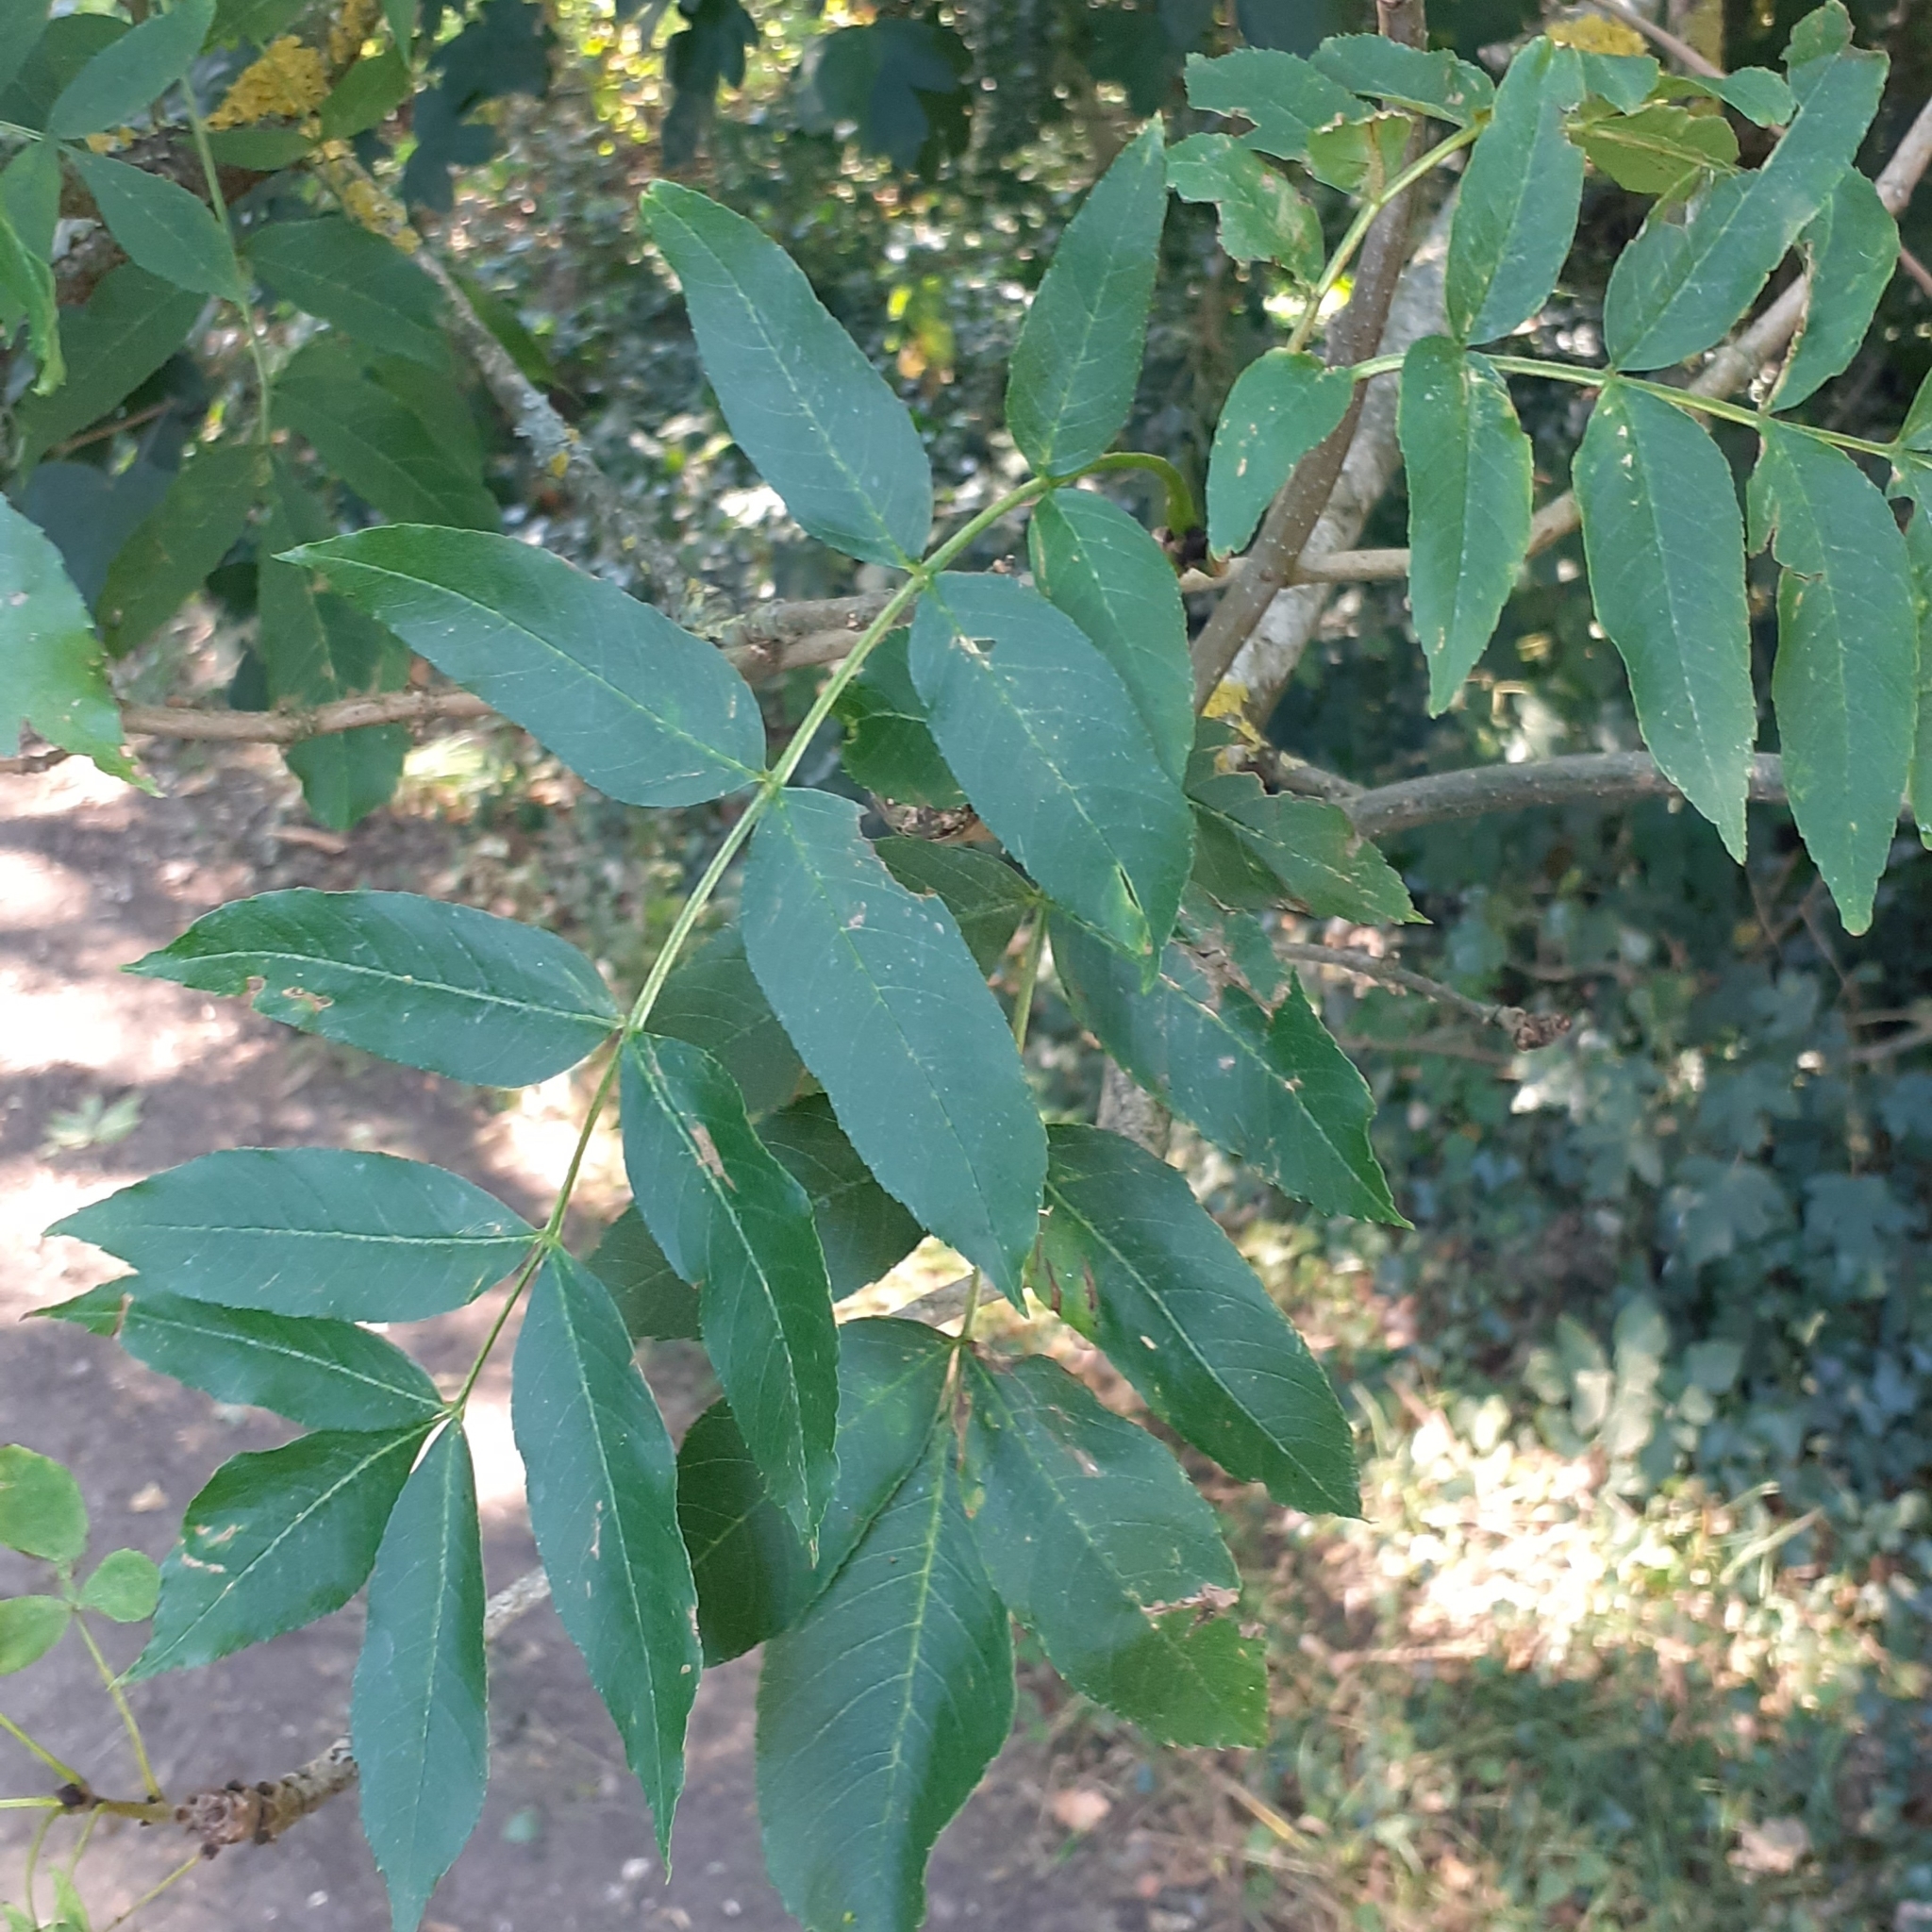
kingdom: Plantae
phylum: Tracheophyta
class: Magnoliopsida
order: Lamiales
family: Oleaceae
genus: Fraxinus
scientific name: Fraxinus excelsior
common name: European ash
